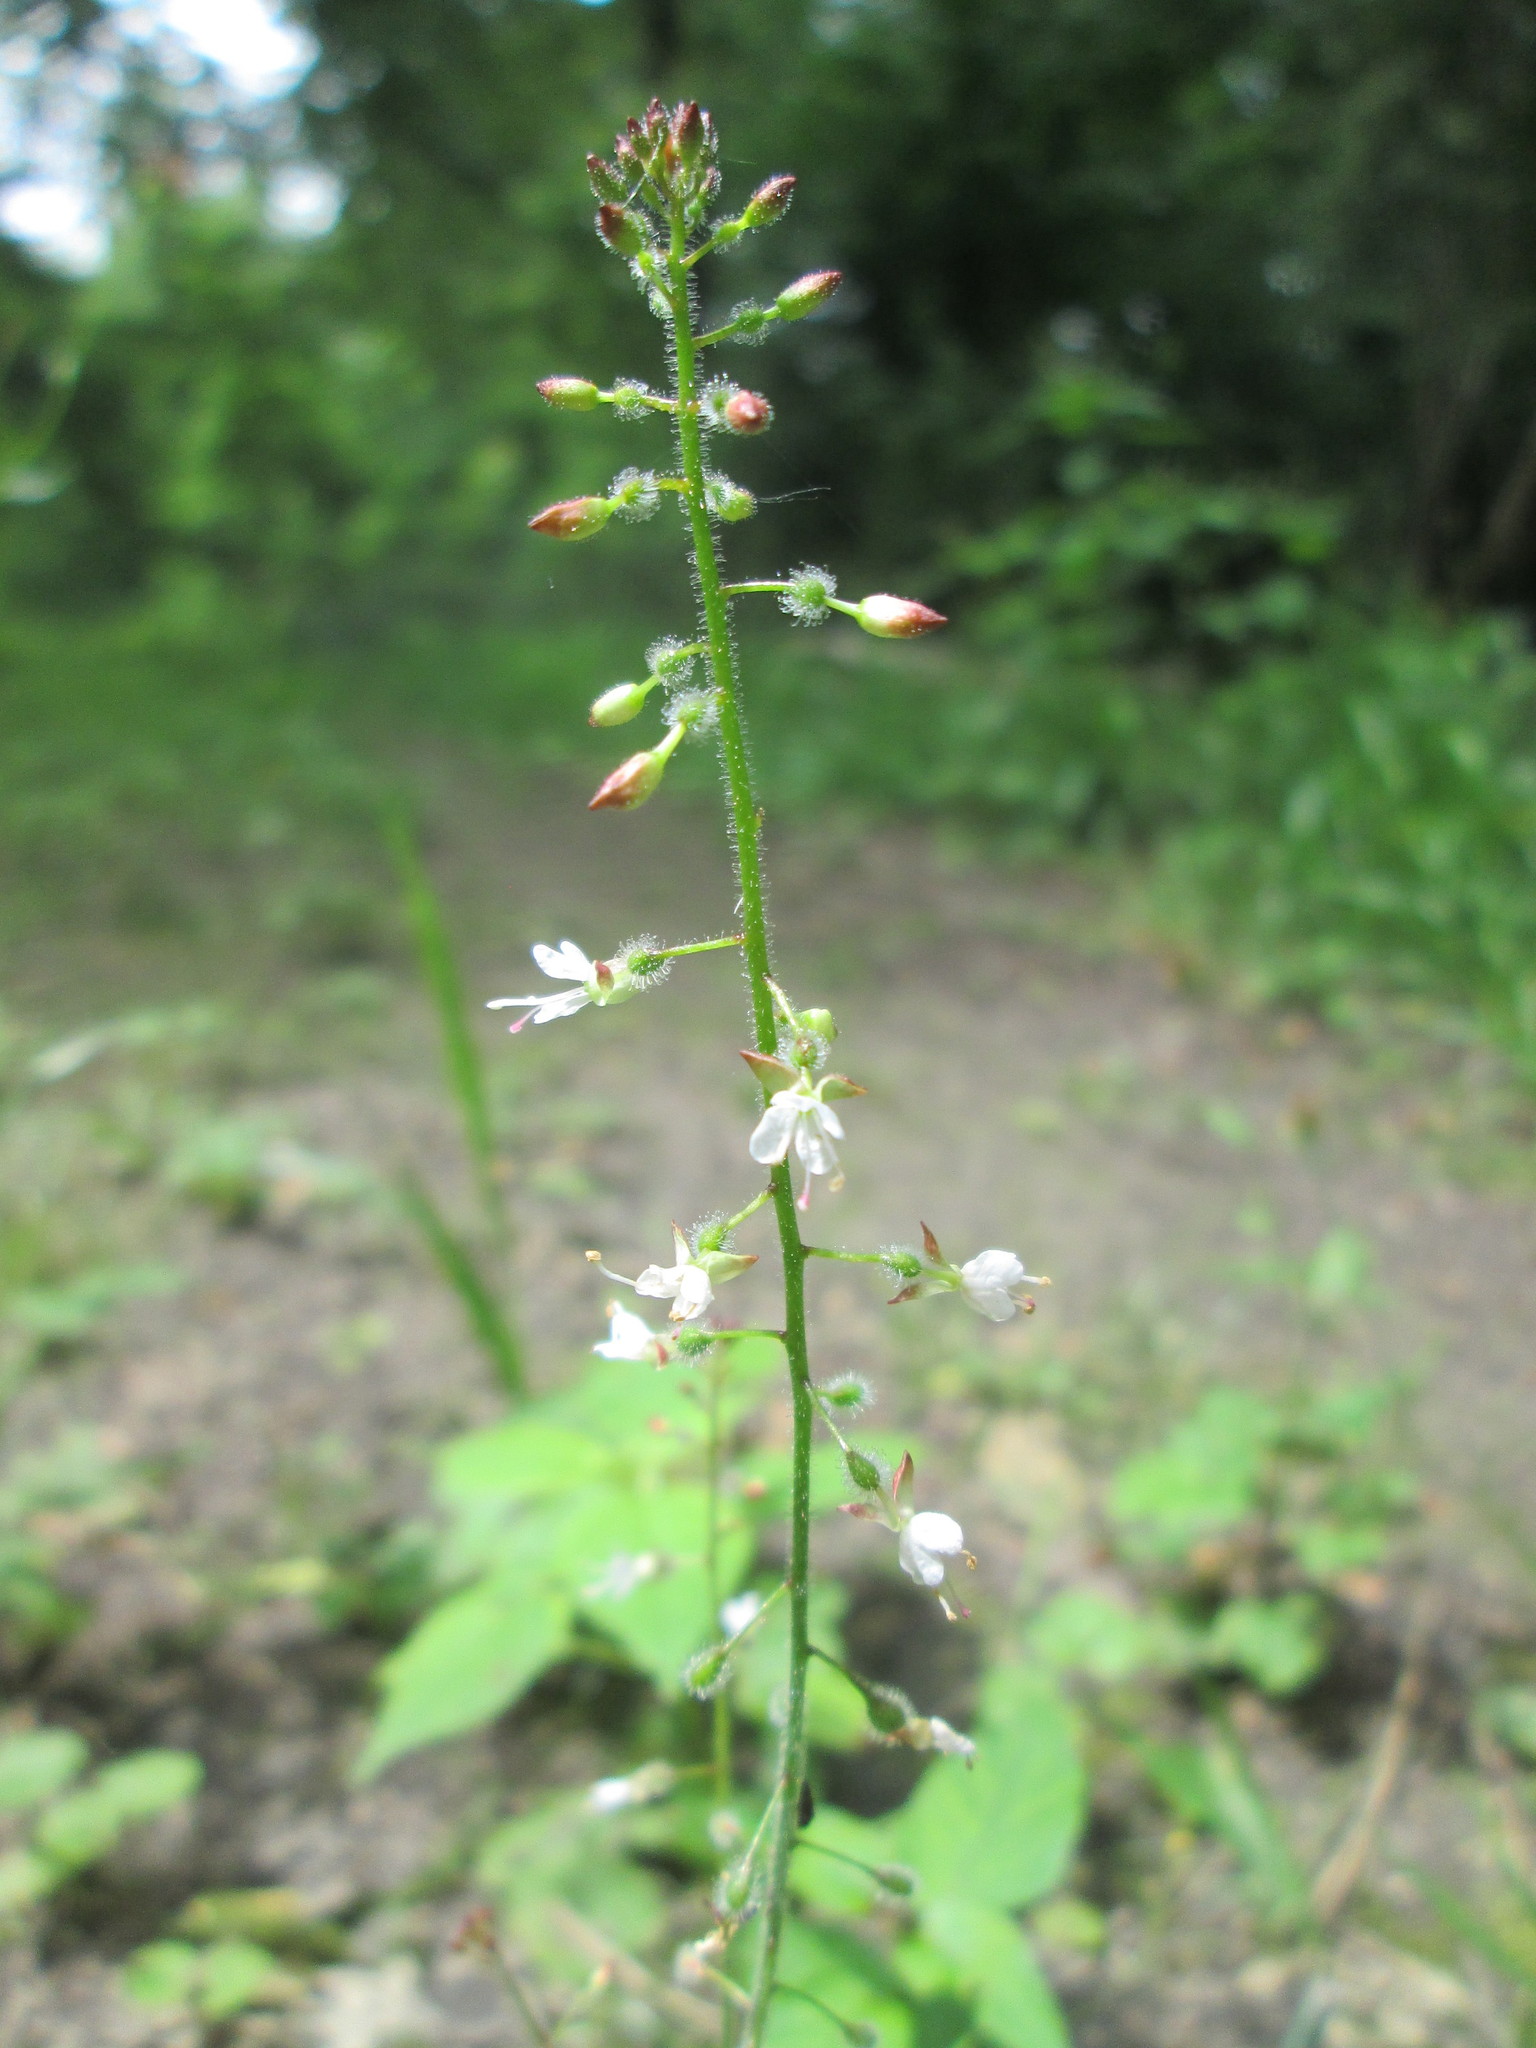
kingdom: Plantae
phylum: Tracheophyta
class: Magnoliopsida
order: Myrtales
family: Onagraceae
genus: Circaea
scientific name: Circaea lutetiana
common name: Enchanter's-nightshade
